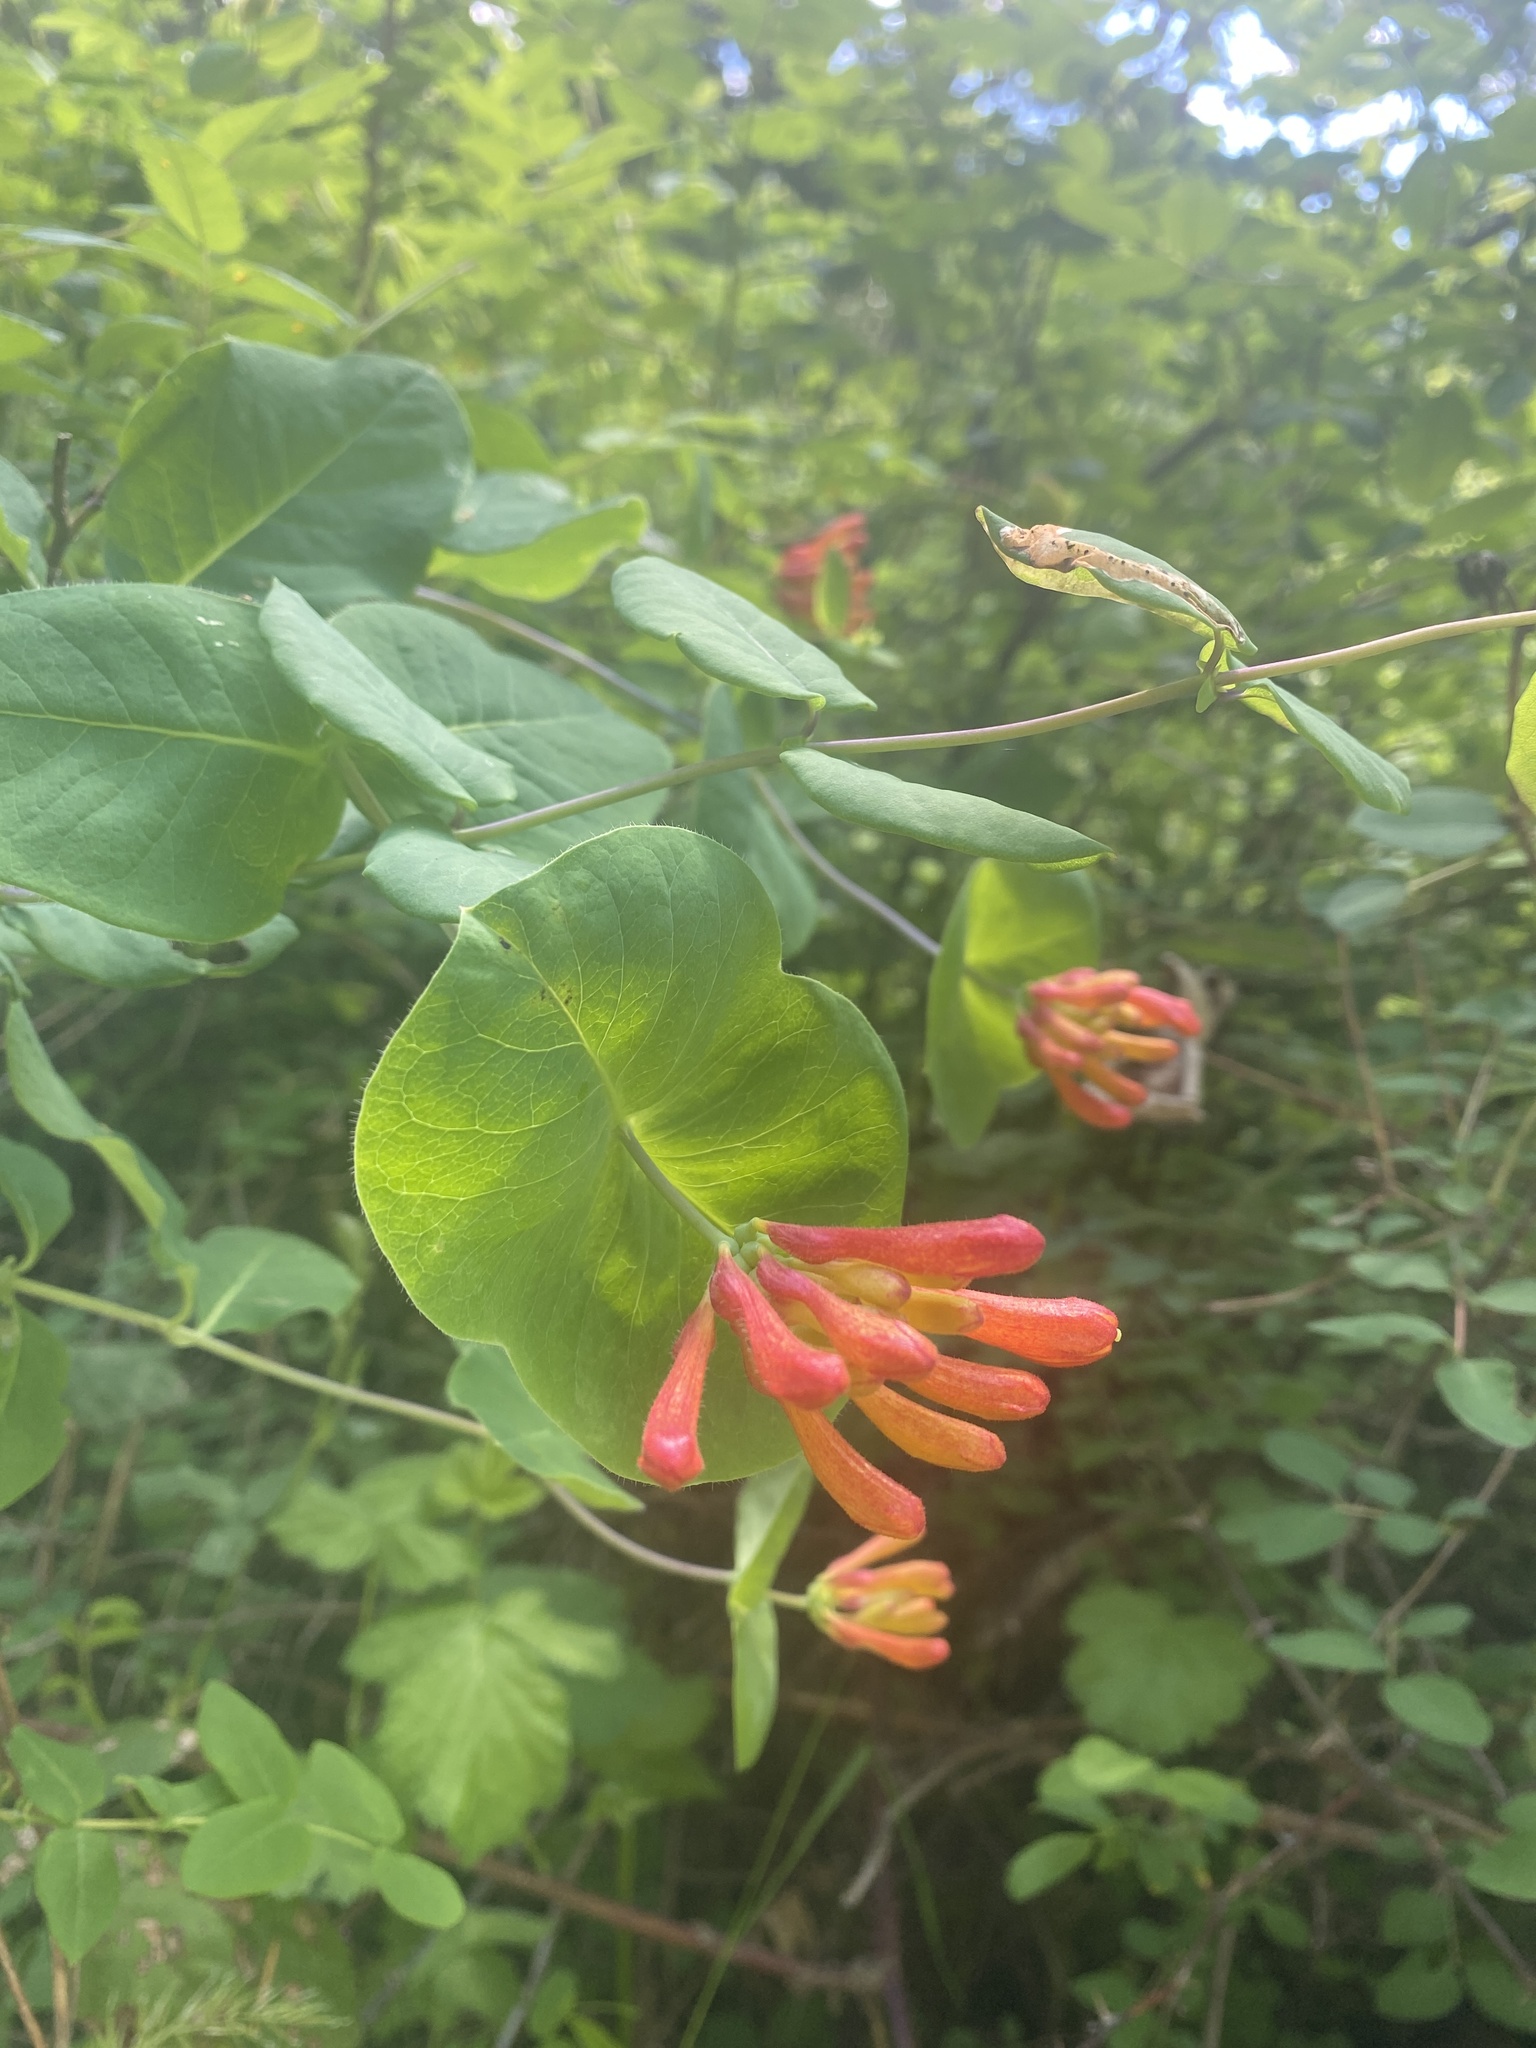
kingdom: Plantae
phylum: Tracheophyta
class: Magnoliopsida
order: Dipsacales
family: Caprifoliaceae
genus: Lonicera
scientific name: Lonicera ciliosa
